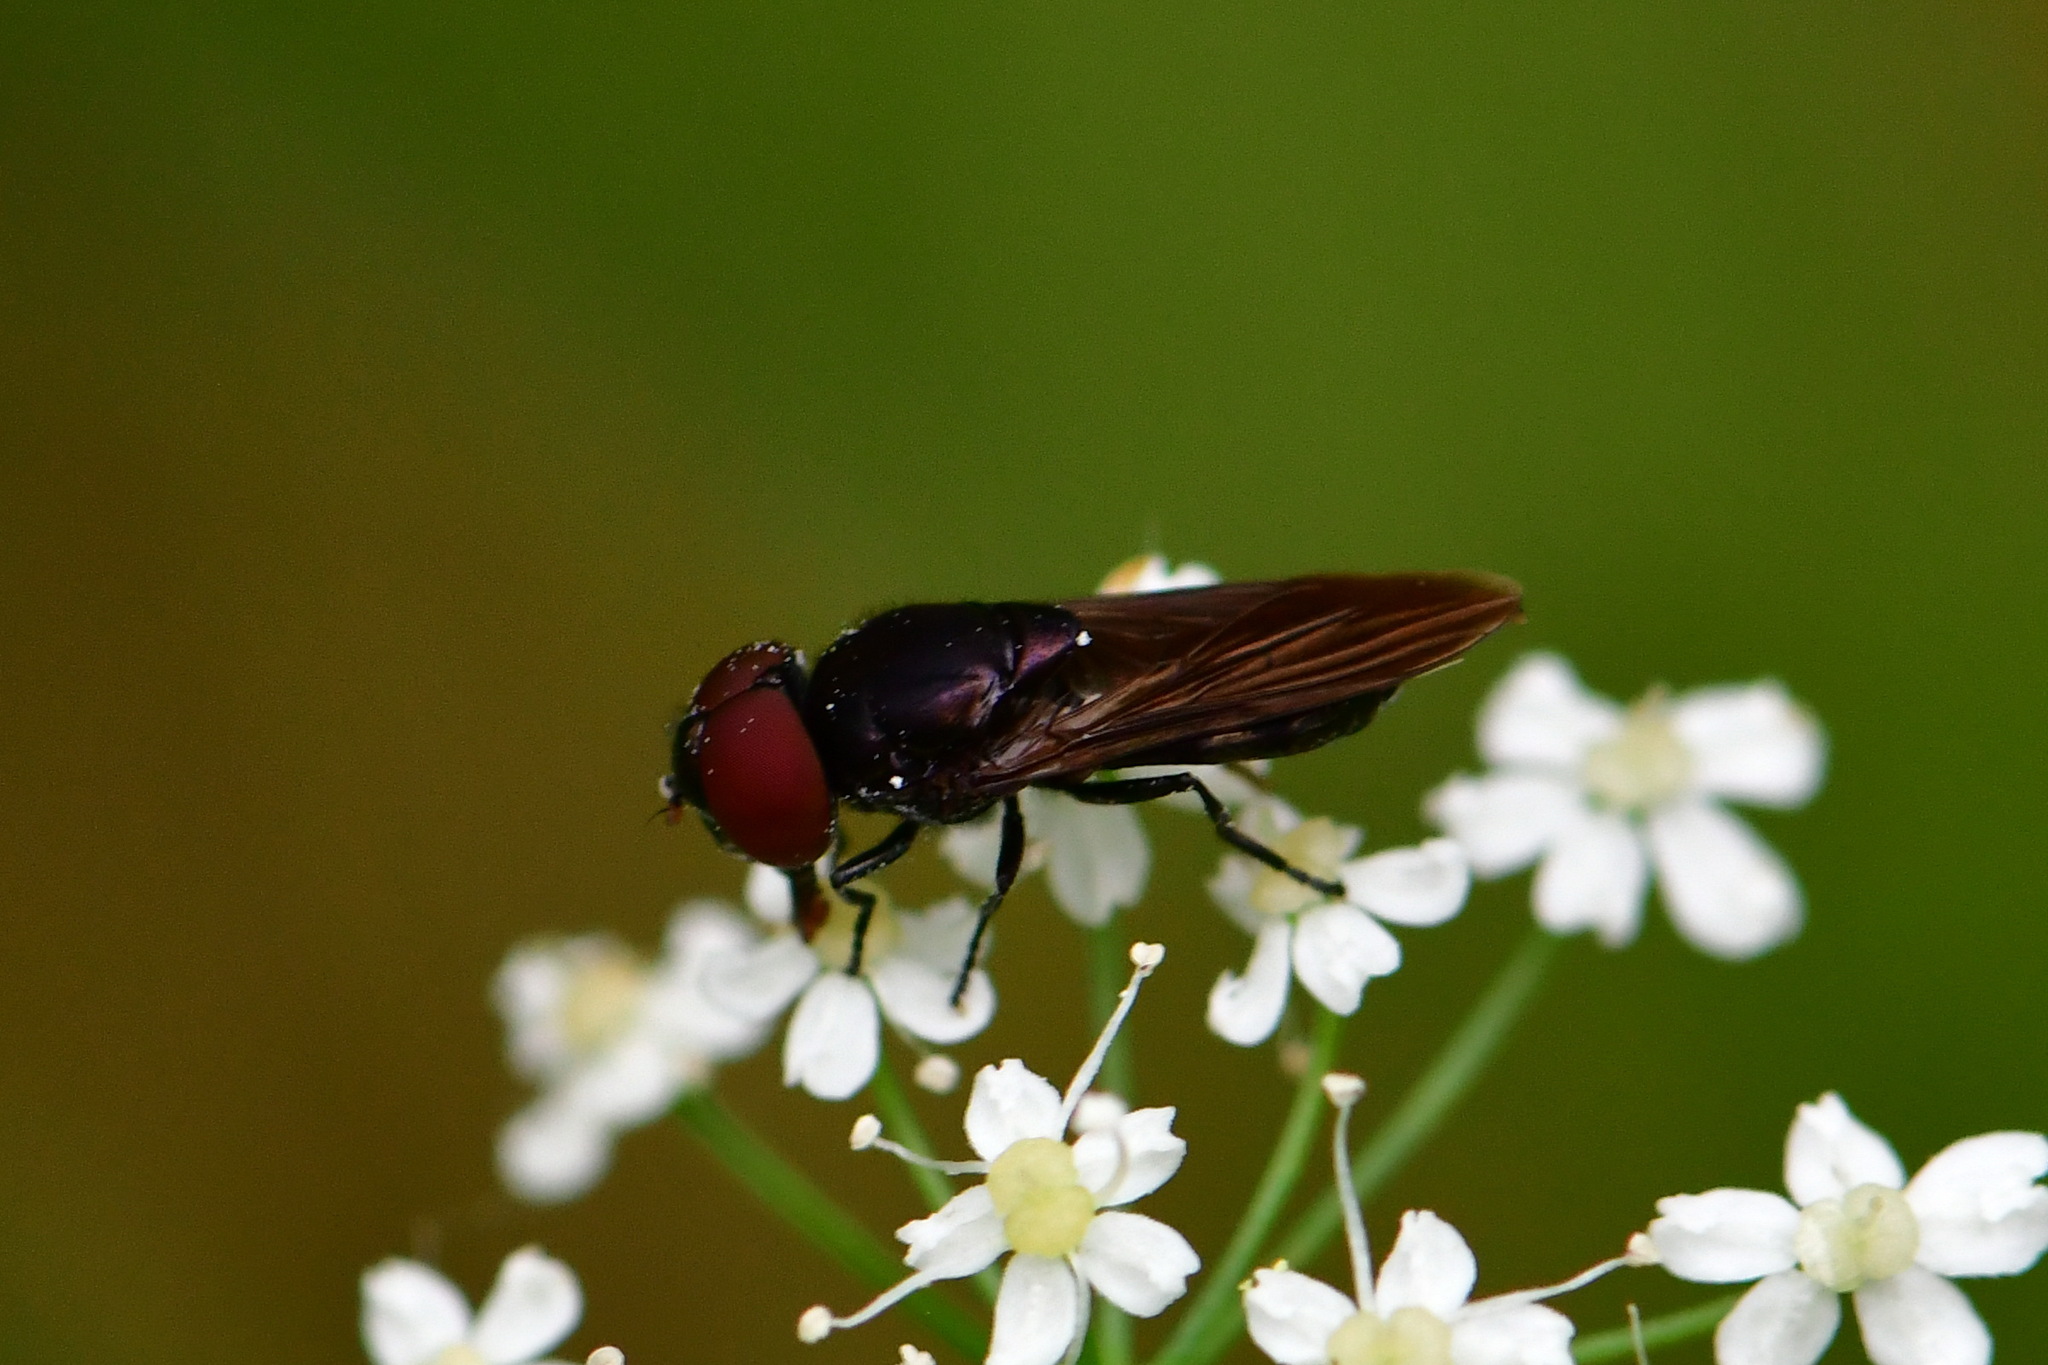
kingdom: Animalia
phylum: Arthropoda
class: Insecta
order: Diptera
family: Syrphidae
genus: Chrysogaster
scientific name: Chrysogaster solstitialis
